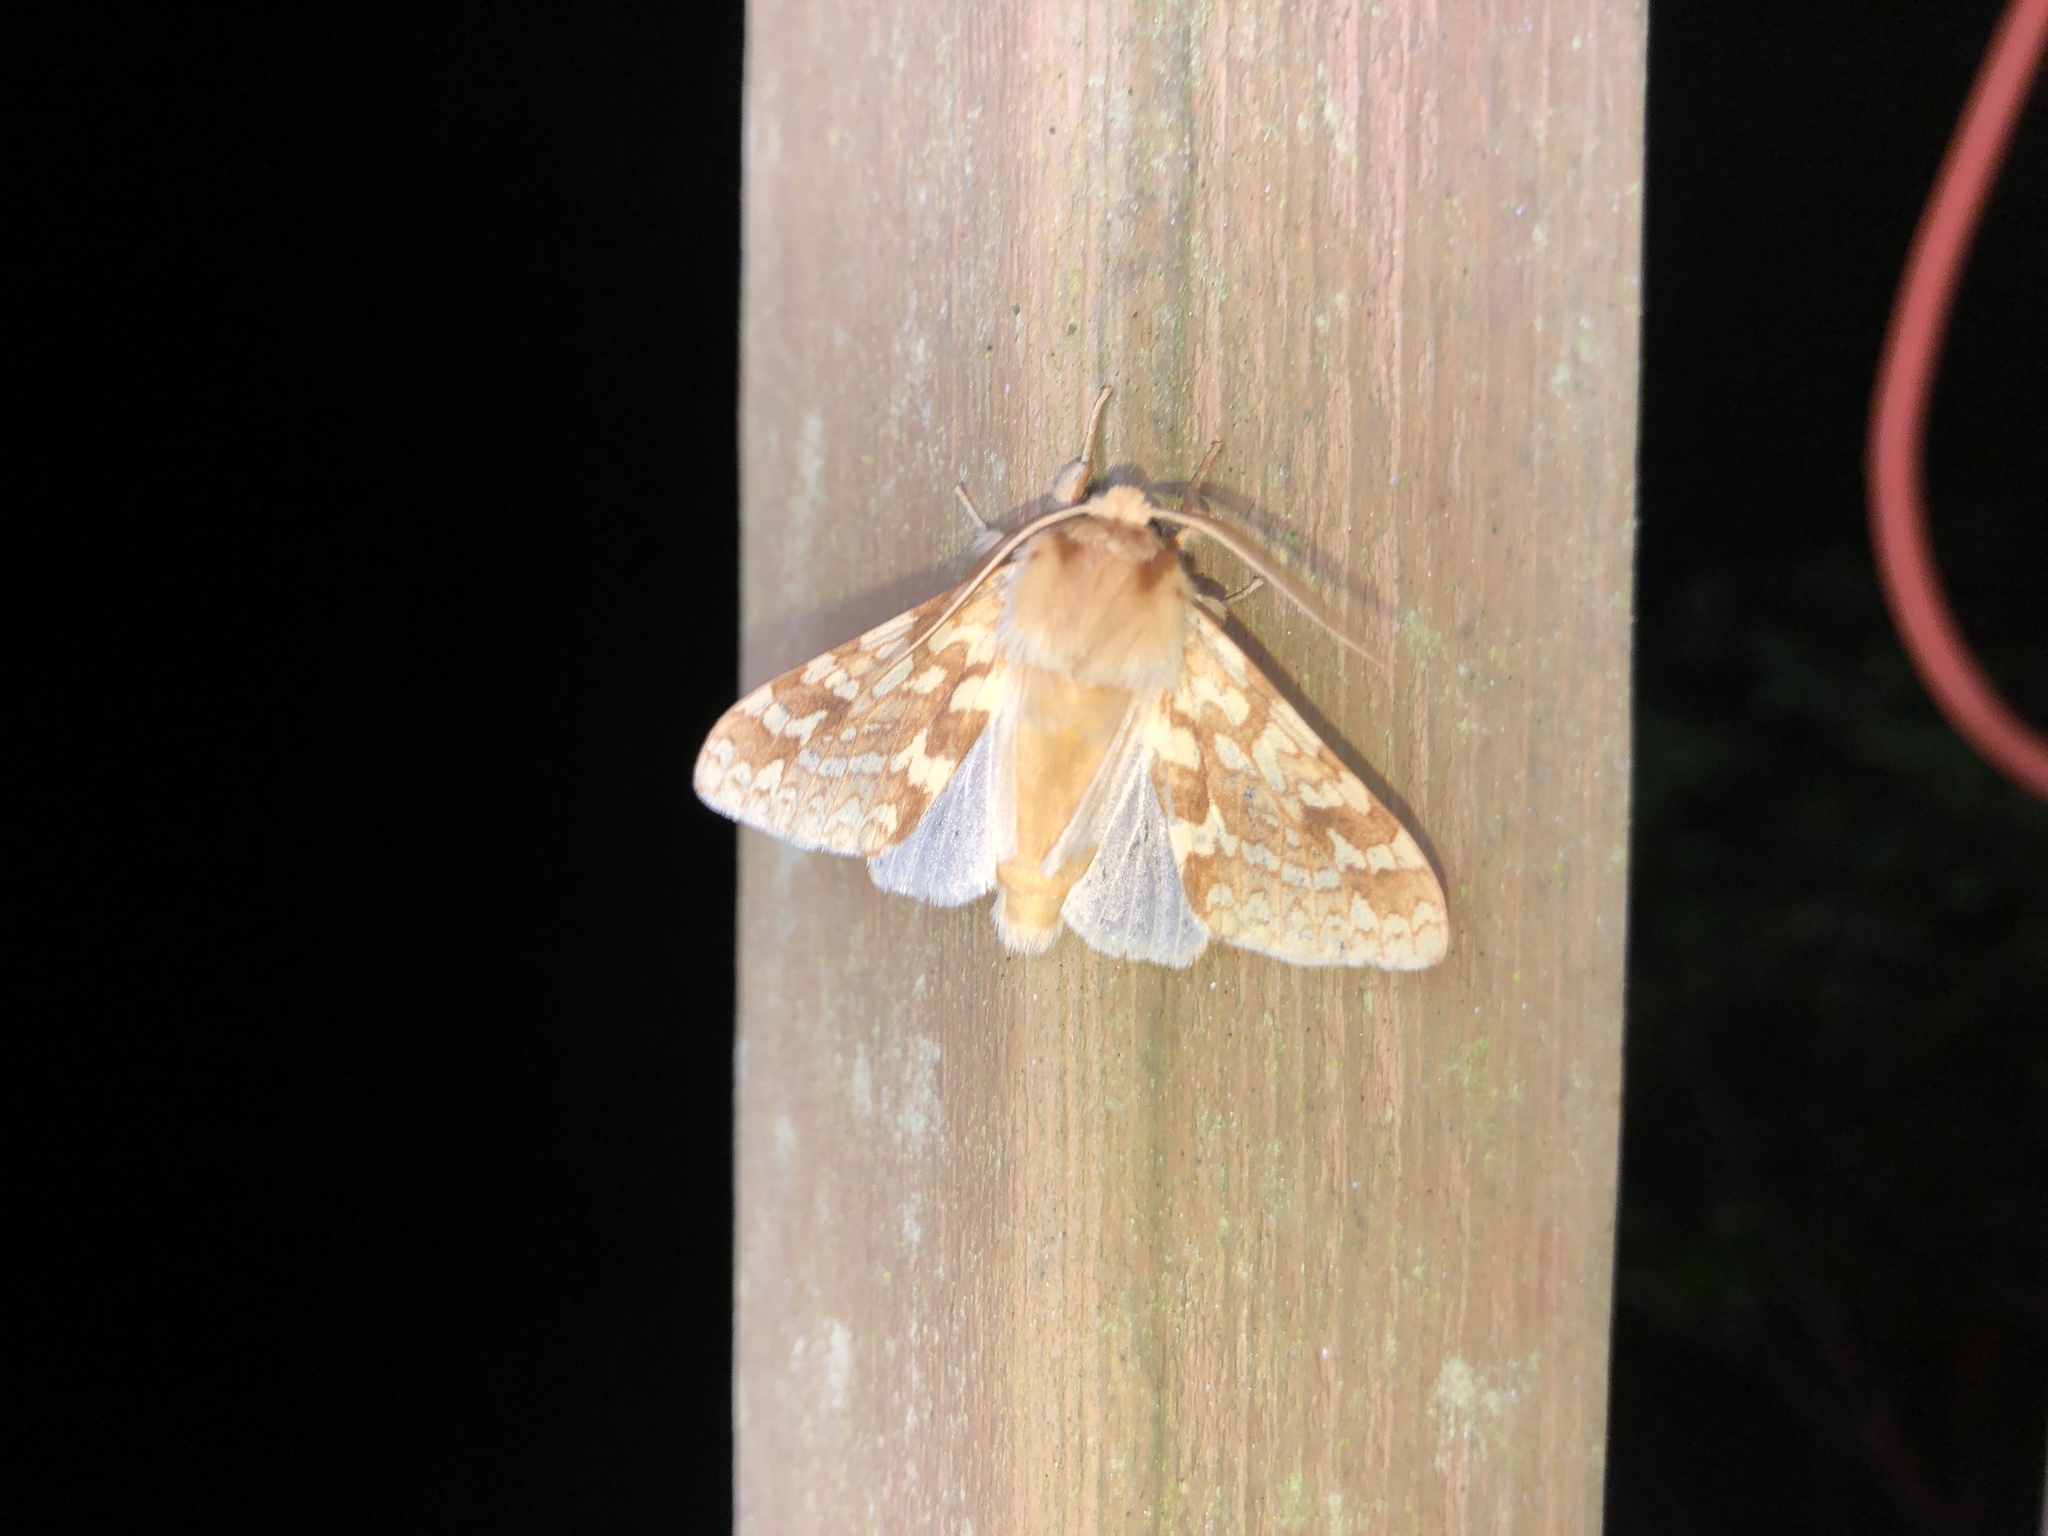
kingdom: Animalia
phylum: Arthropoda
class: Insecta
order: Lepidoptera
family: Erebidae
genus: Lophocampa
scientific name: Lophocampa maculata
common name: Spotted tussock moth
